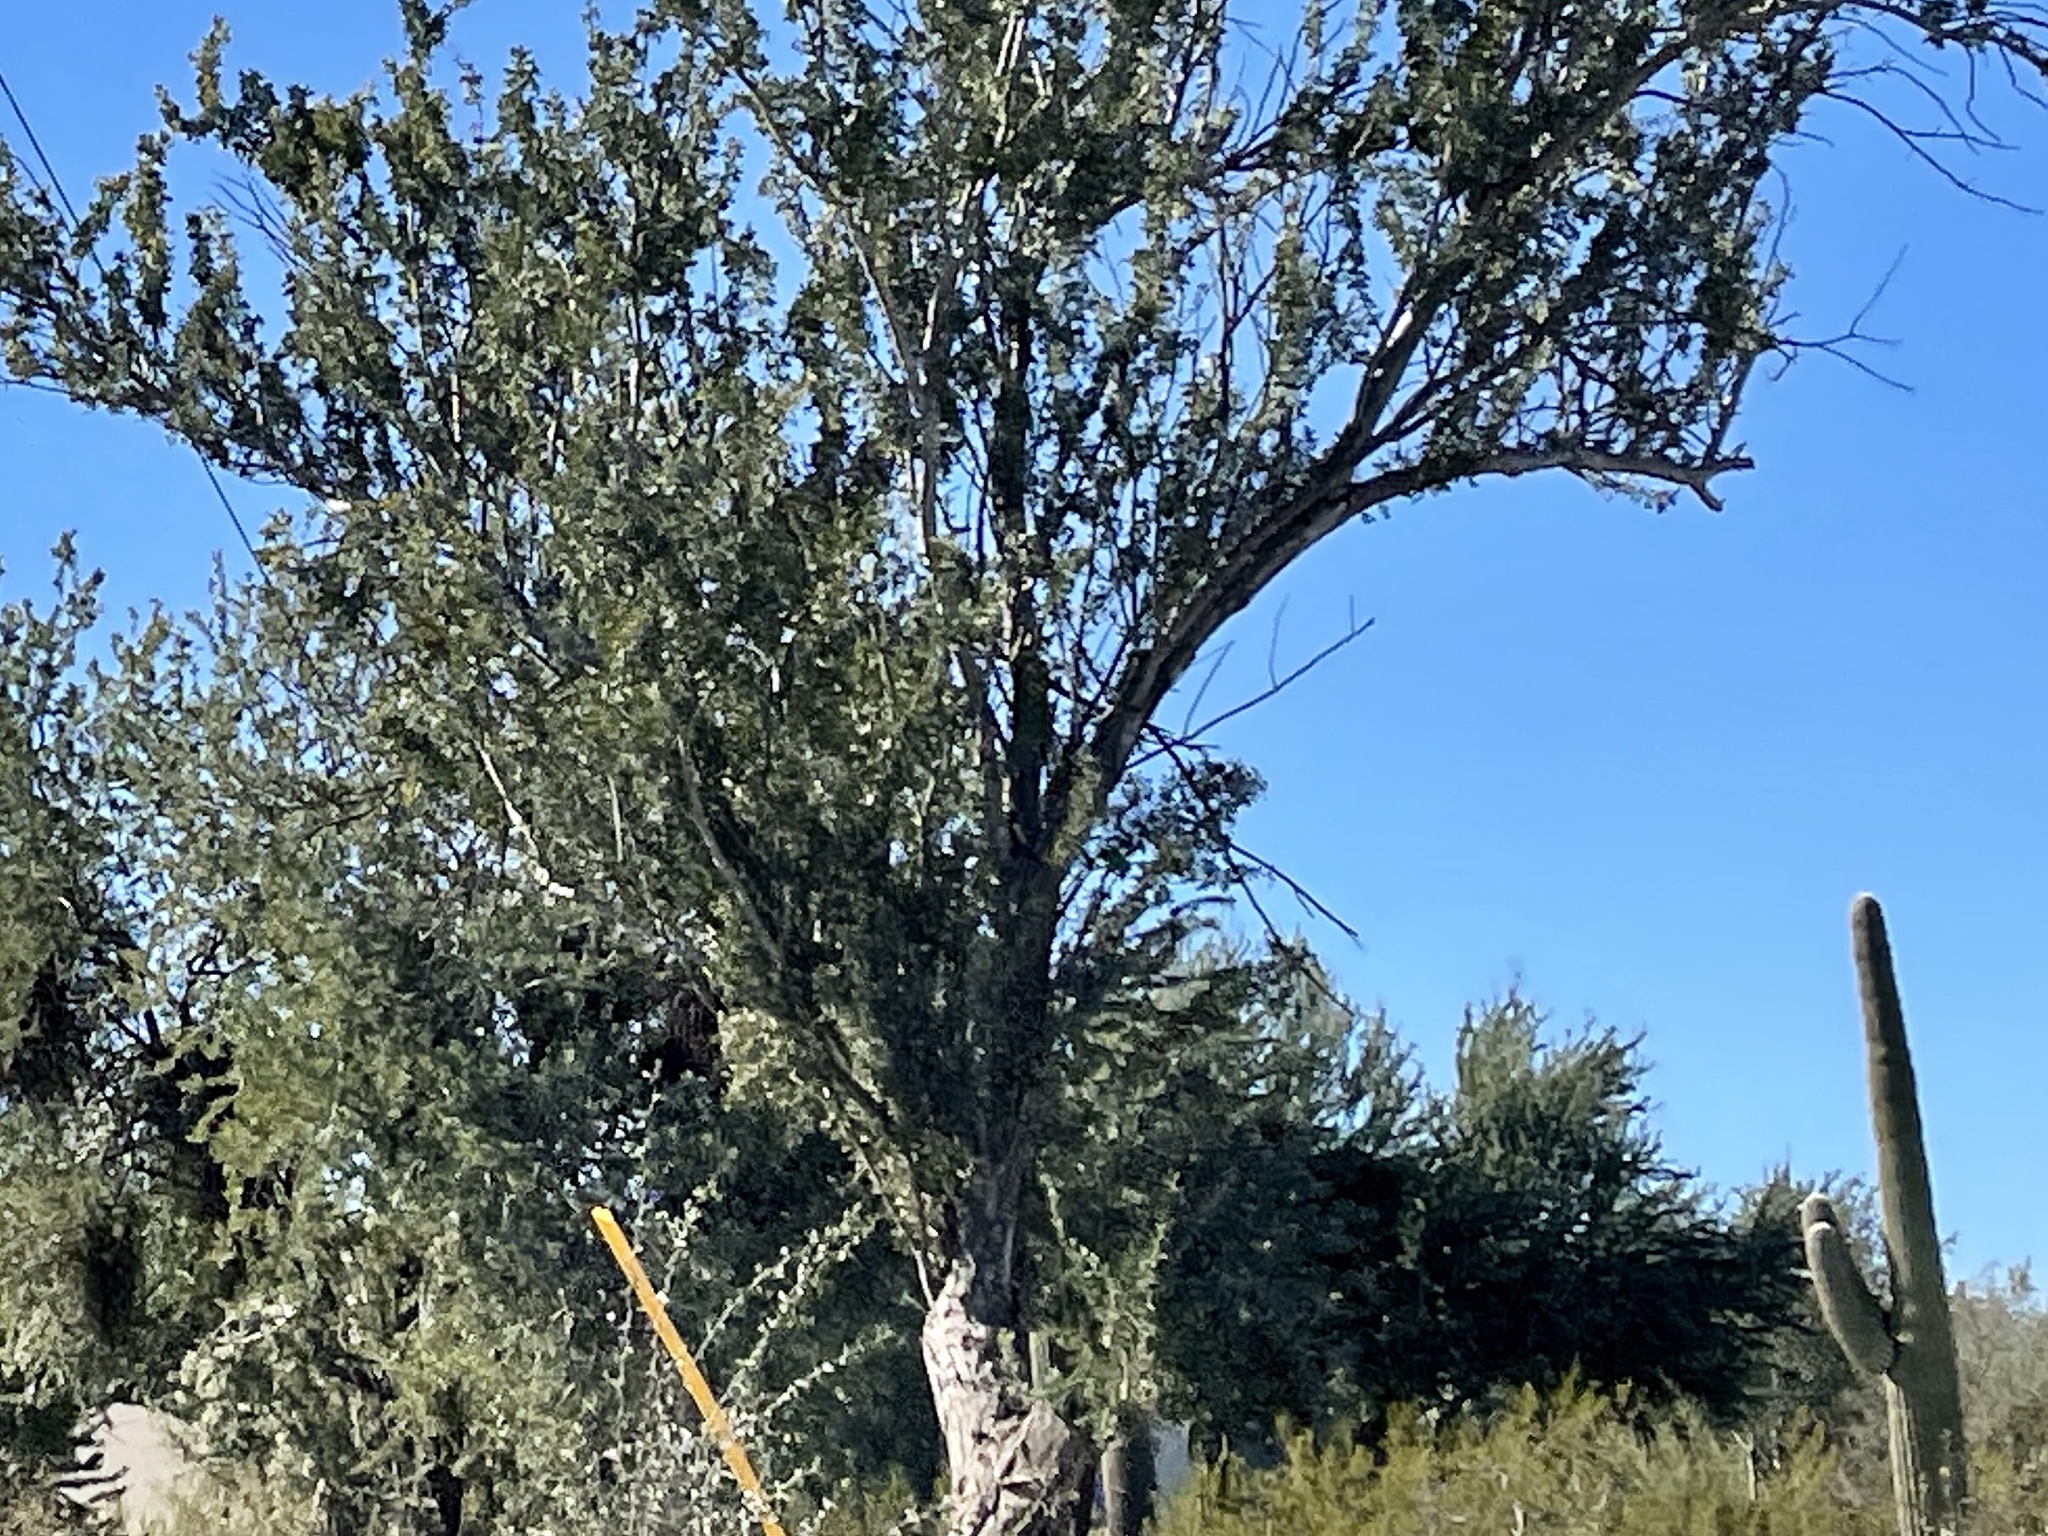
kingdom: Plantae
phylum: Tracheophyta
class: Magnoliopsida
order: Fabales
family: Fabaceae
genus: Olneya
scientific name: Olneya tesota
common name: Desert ironwood
